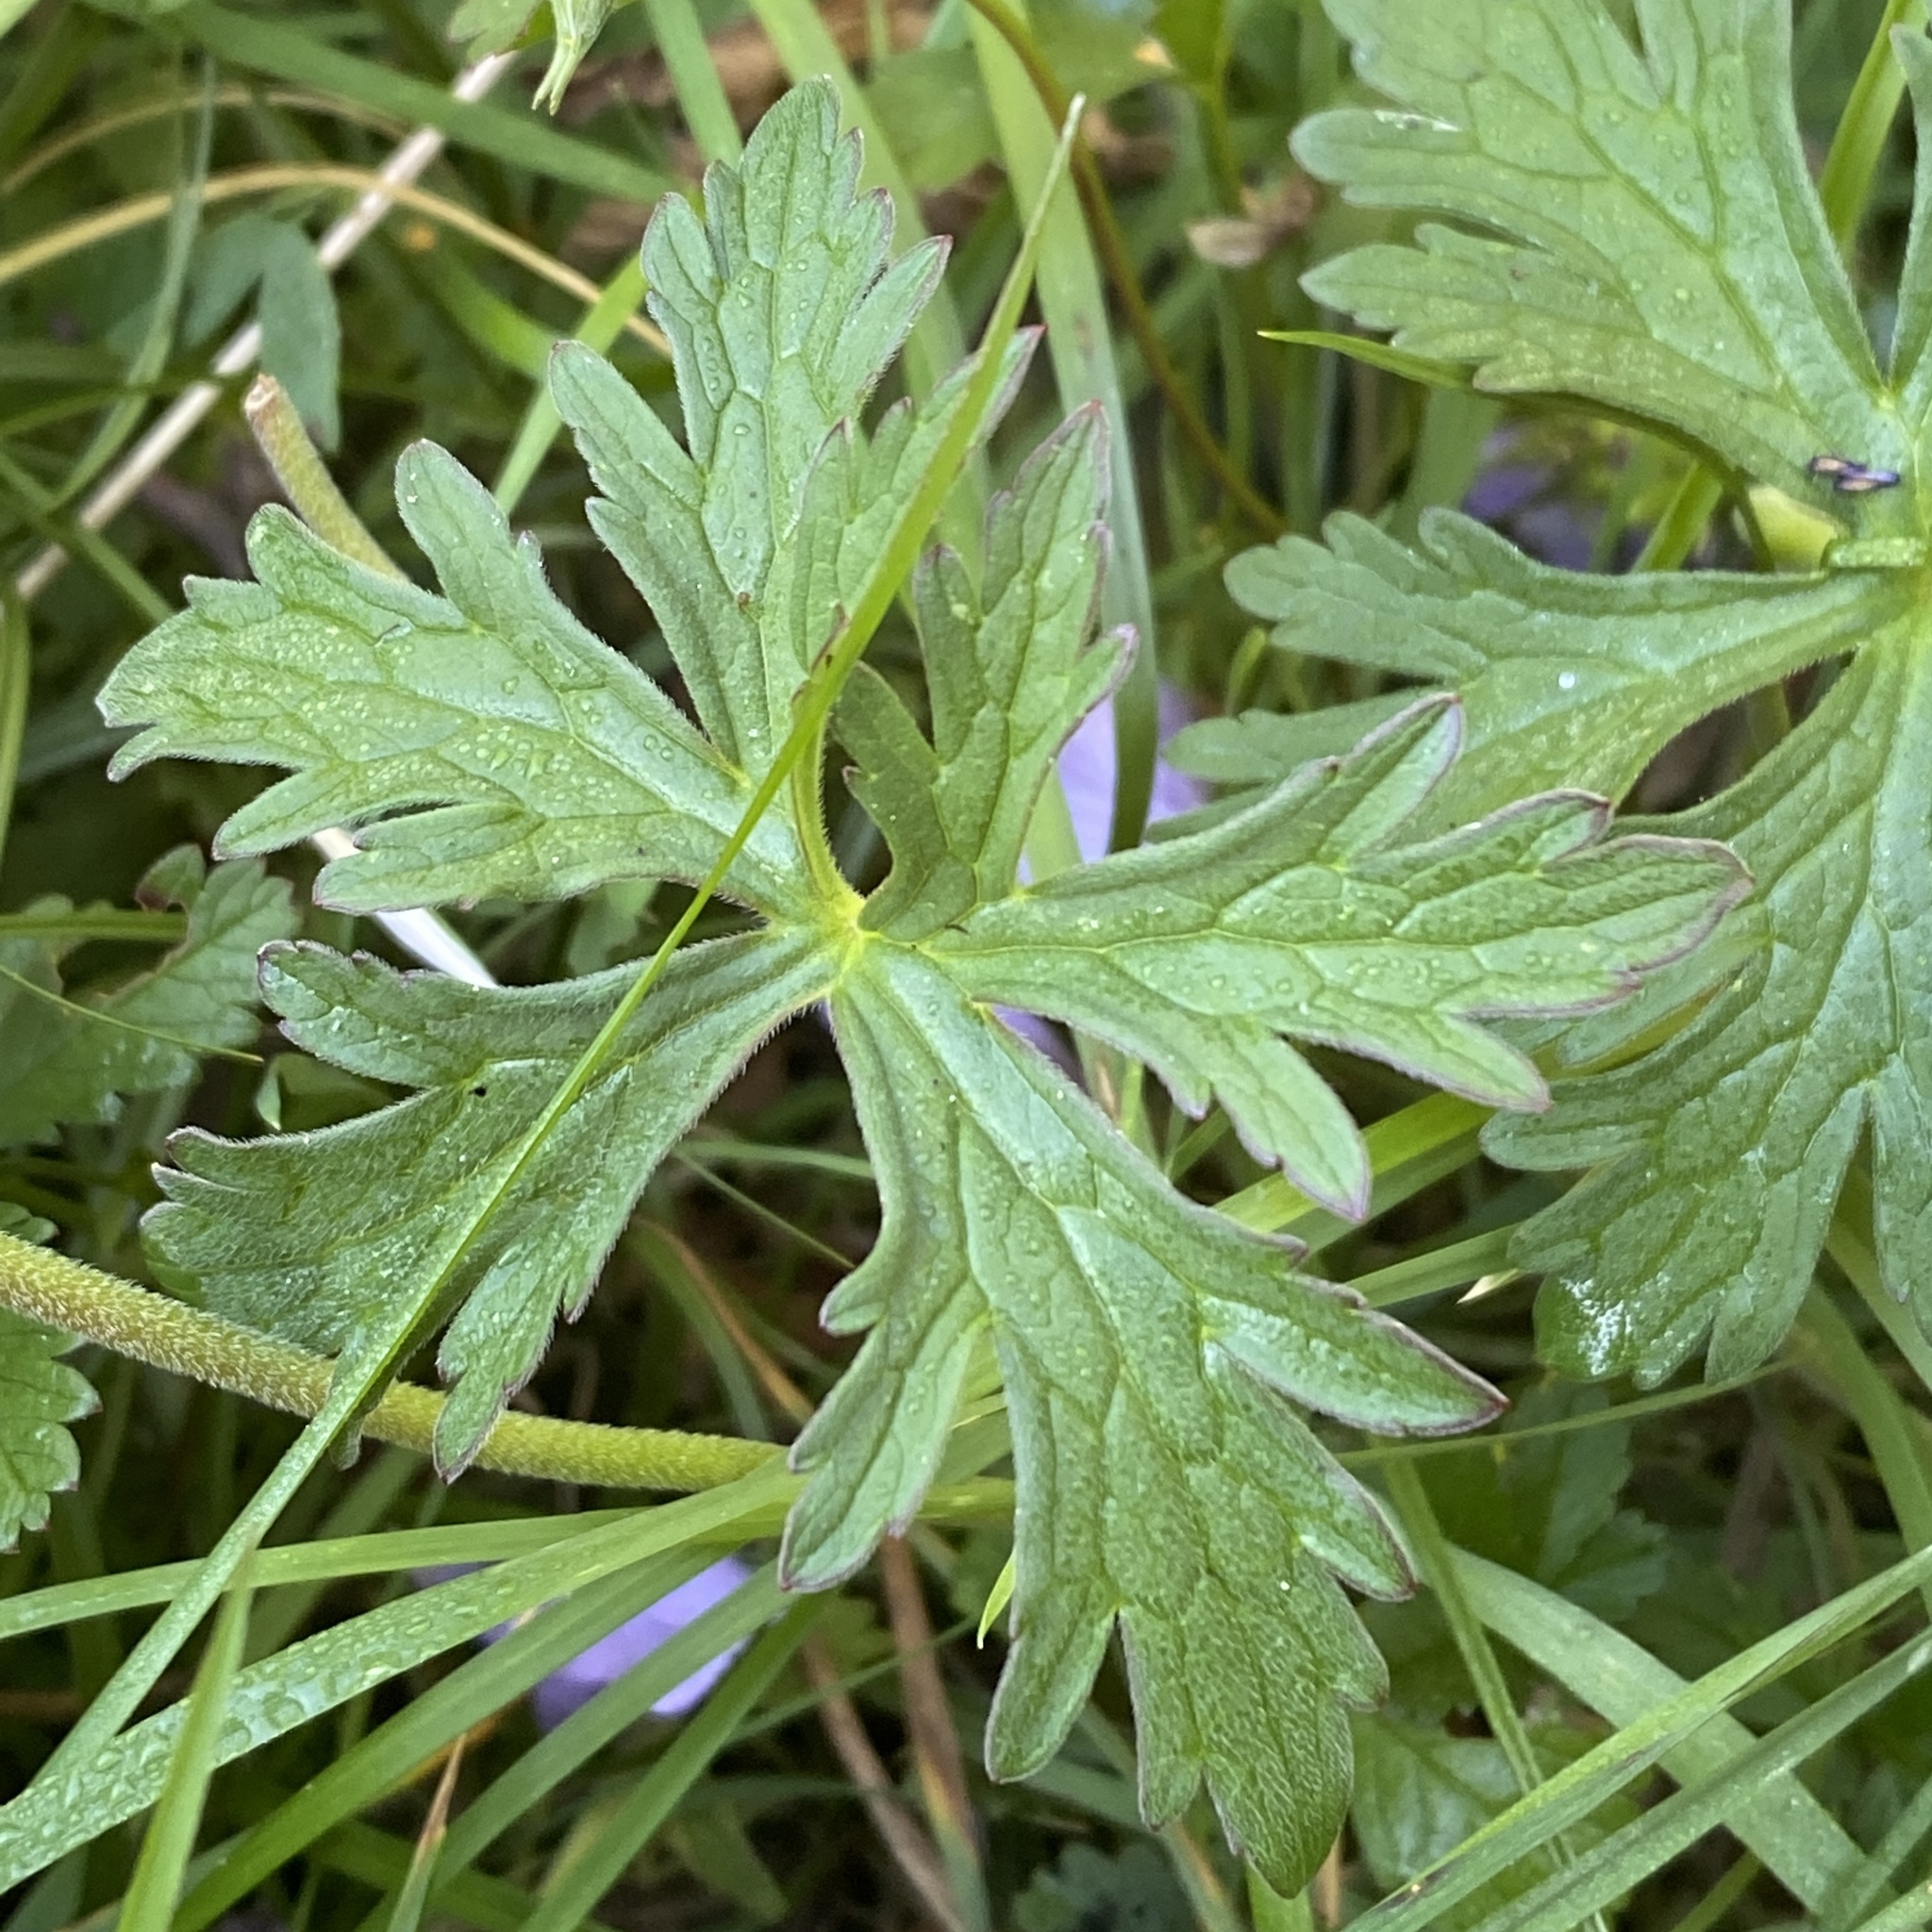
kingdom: Plantae
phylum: Tracheophyta
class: Magnoliopsida
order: Geraniales
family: Geraniaceae
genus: Geranium
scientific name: Geranium pratense
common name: Meadow crane's-bill
